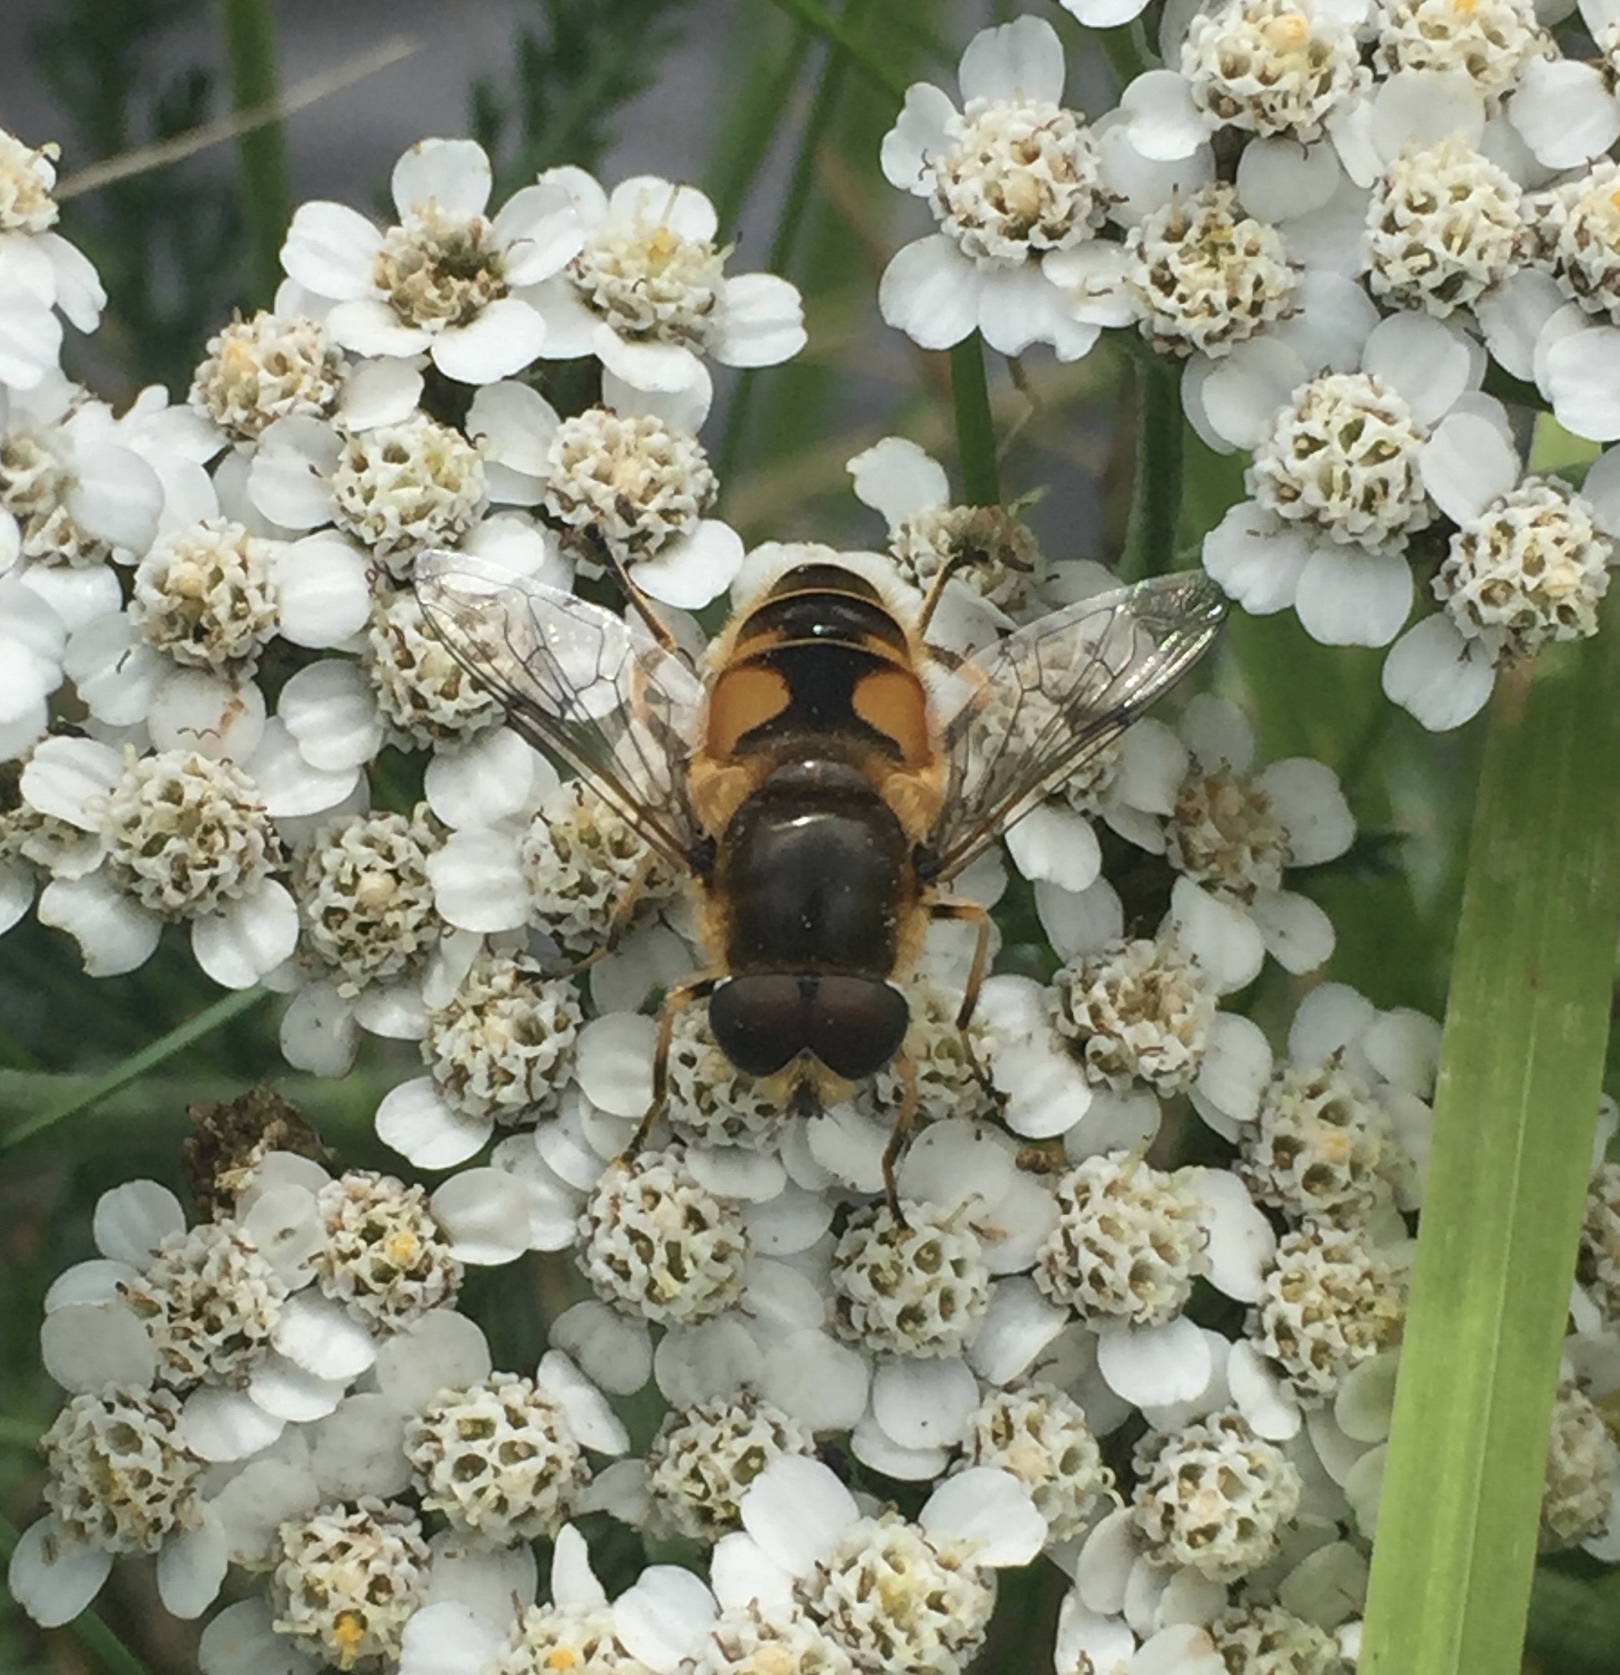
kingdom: Animalia
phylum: Arthropoda
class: Insecta
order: Diptera
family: Syrphidae
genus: Cheilosia
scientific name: Cheilosia morio
